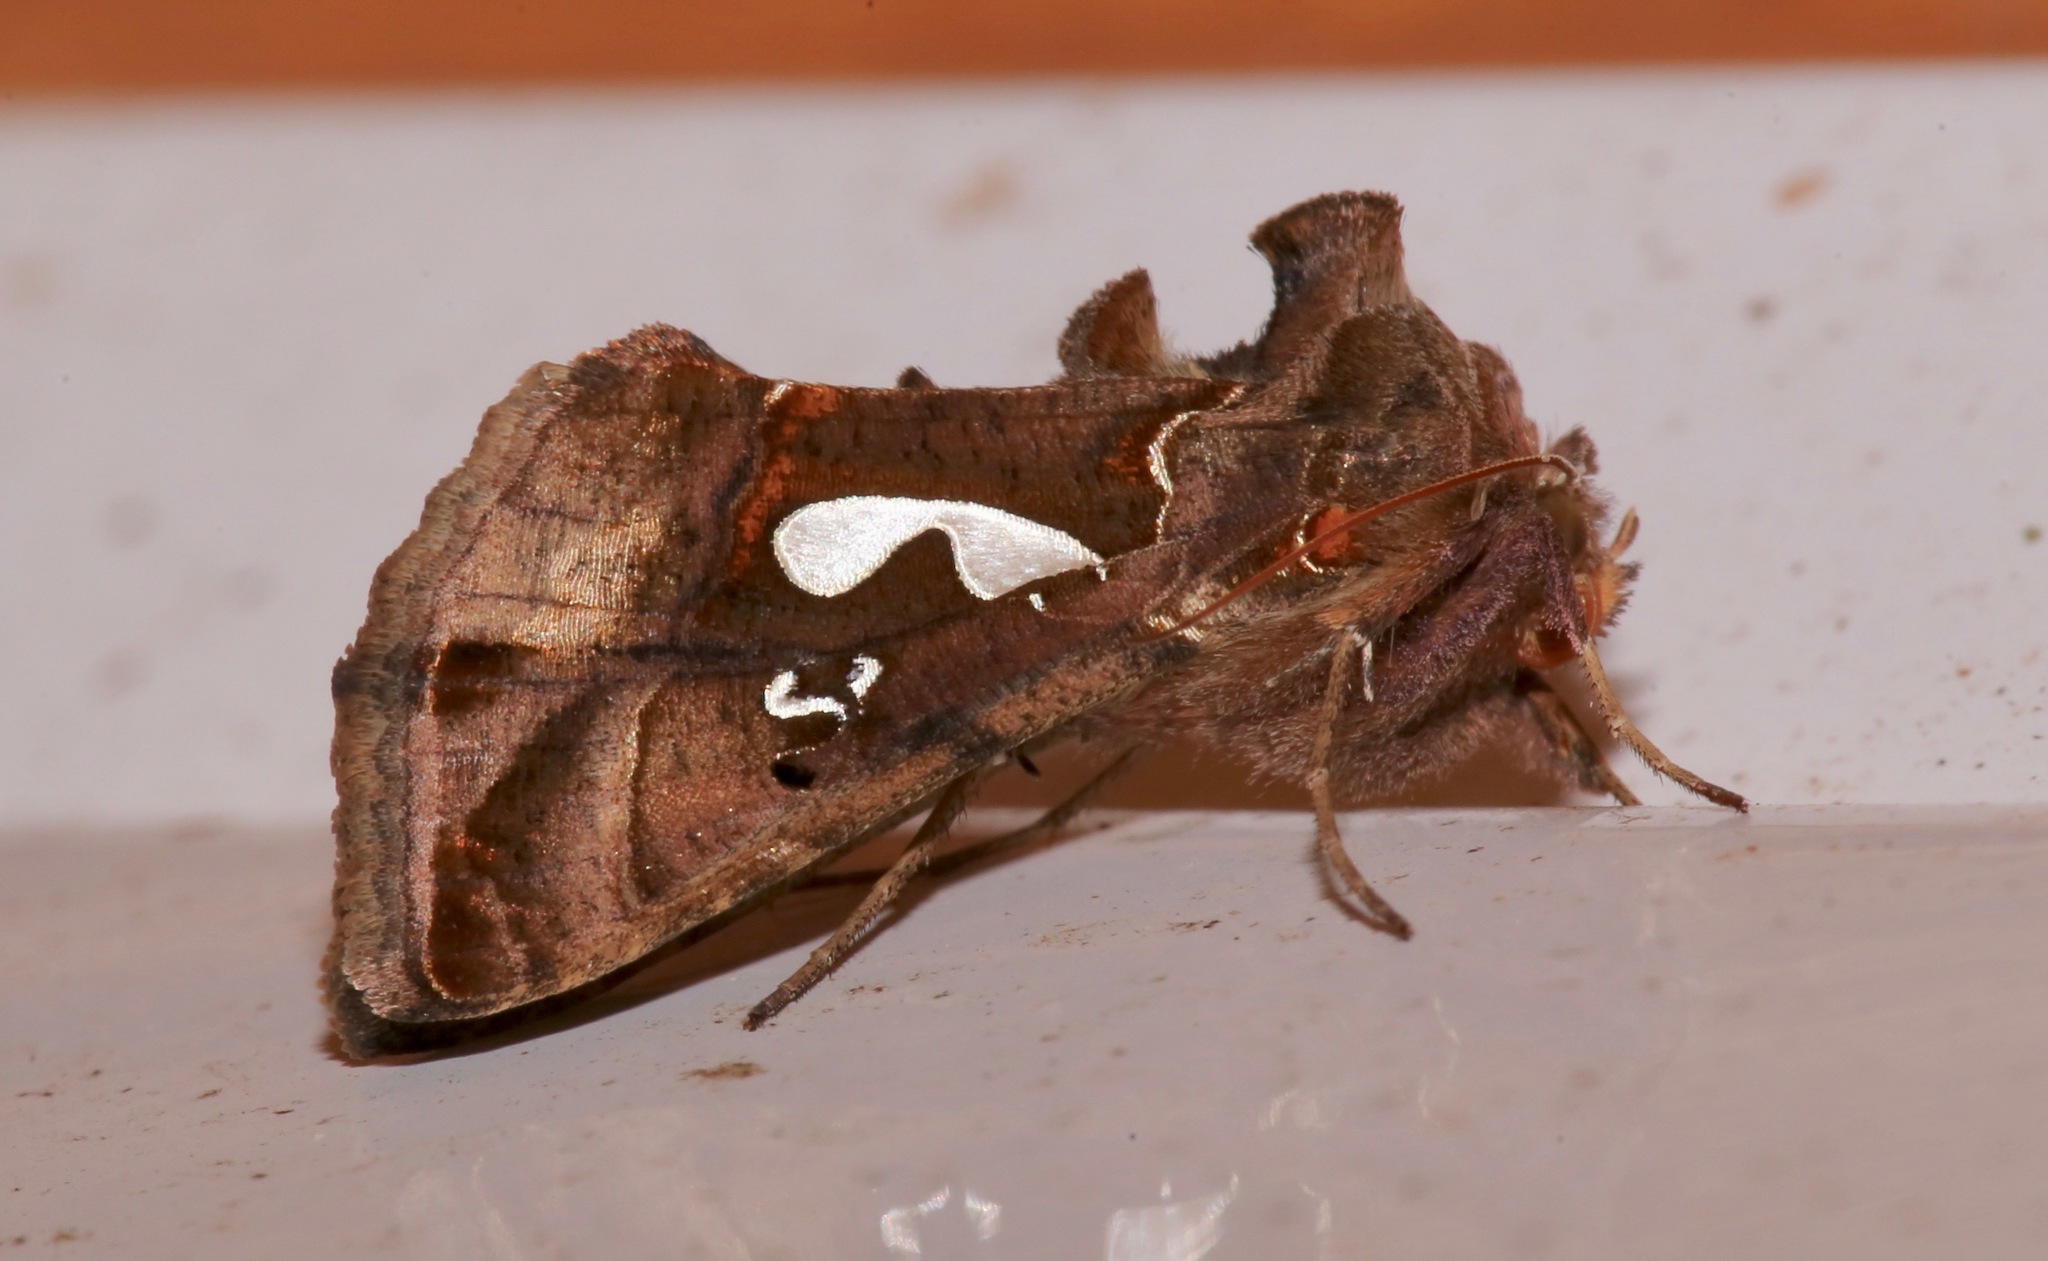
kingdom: Animalia
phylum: Arthropoda
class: Insecta
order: Lepidoptera
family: Noctuidae
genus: Megalographa
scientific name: Megalographa biloba
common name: Cutworm
